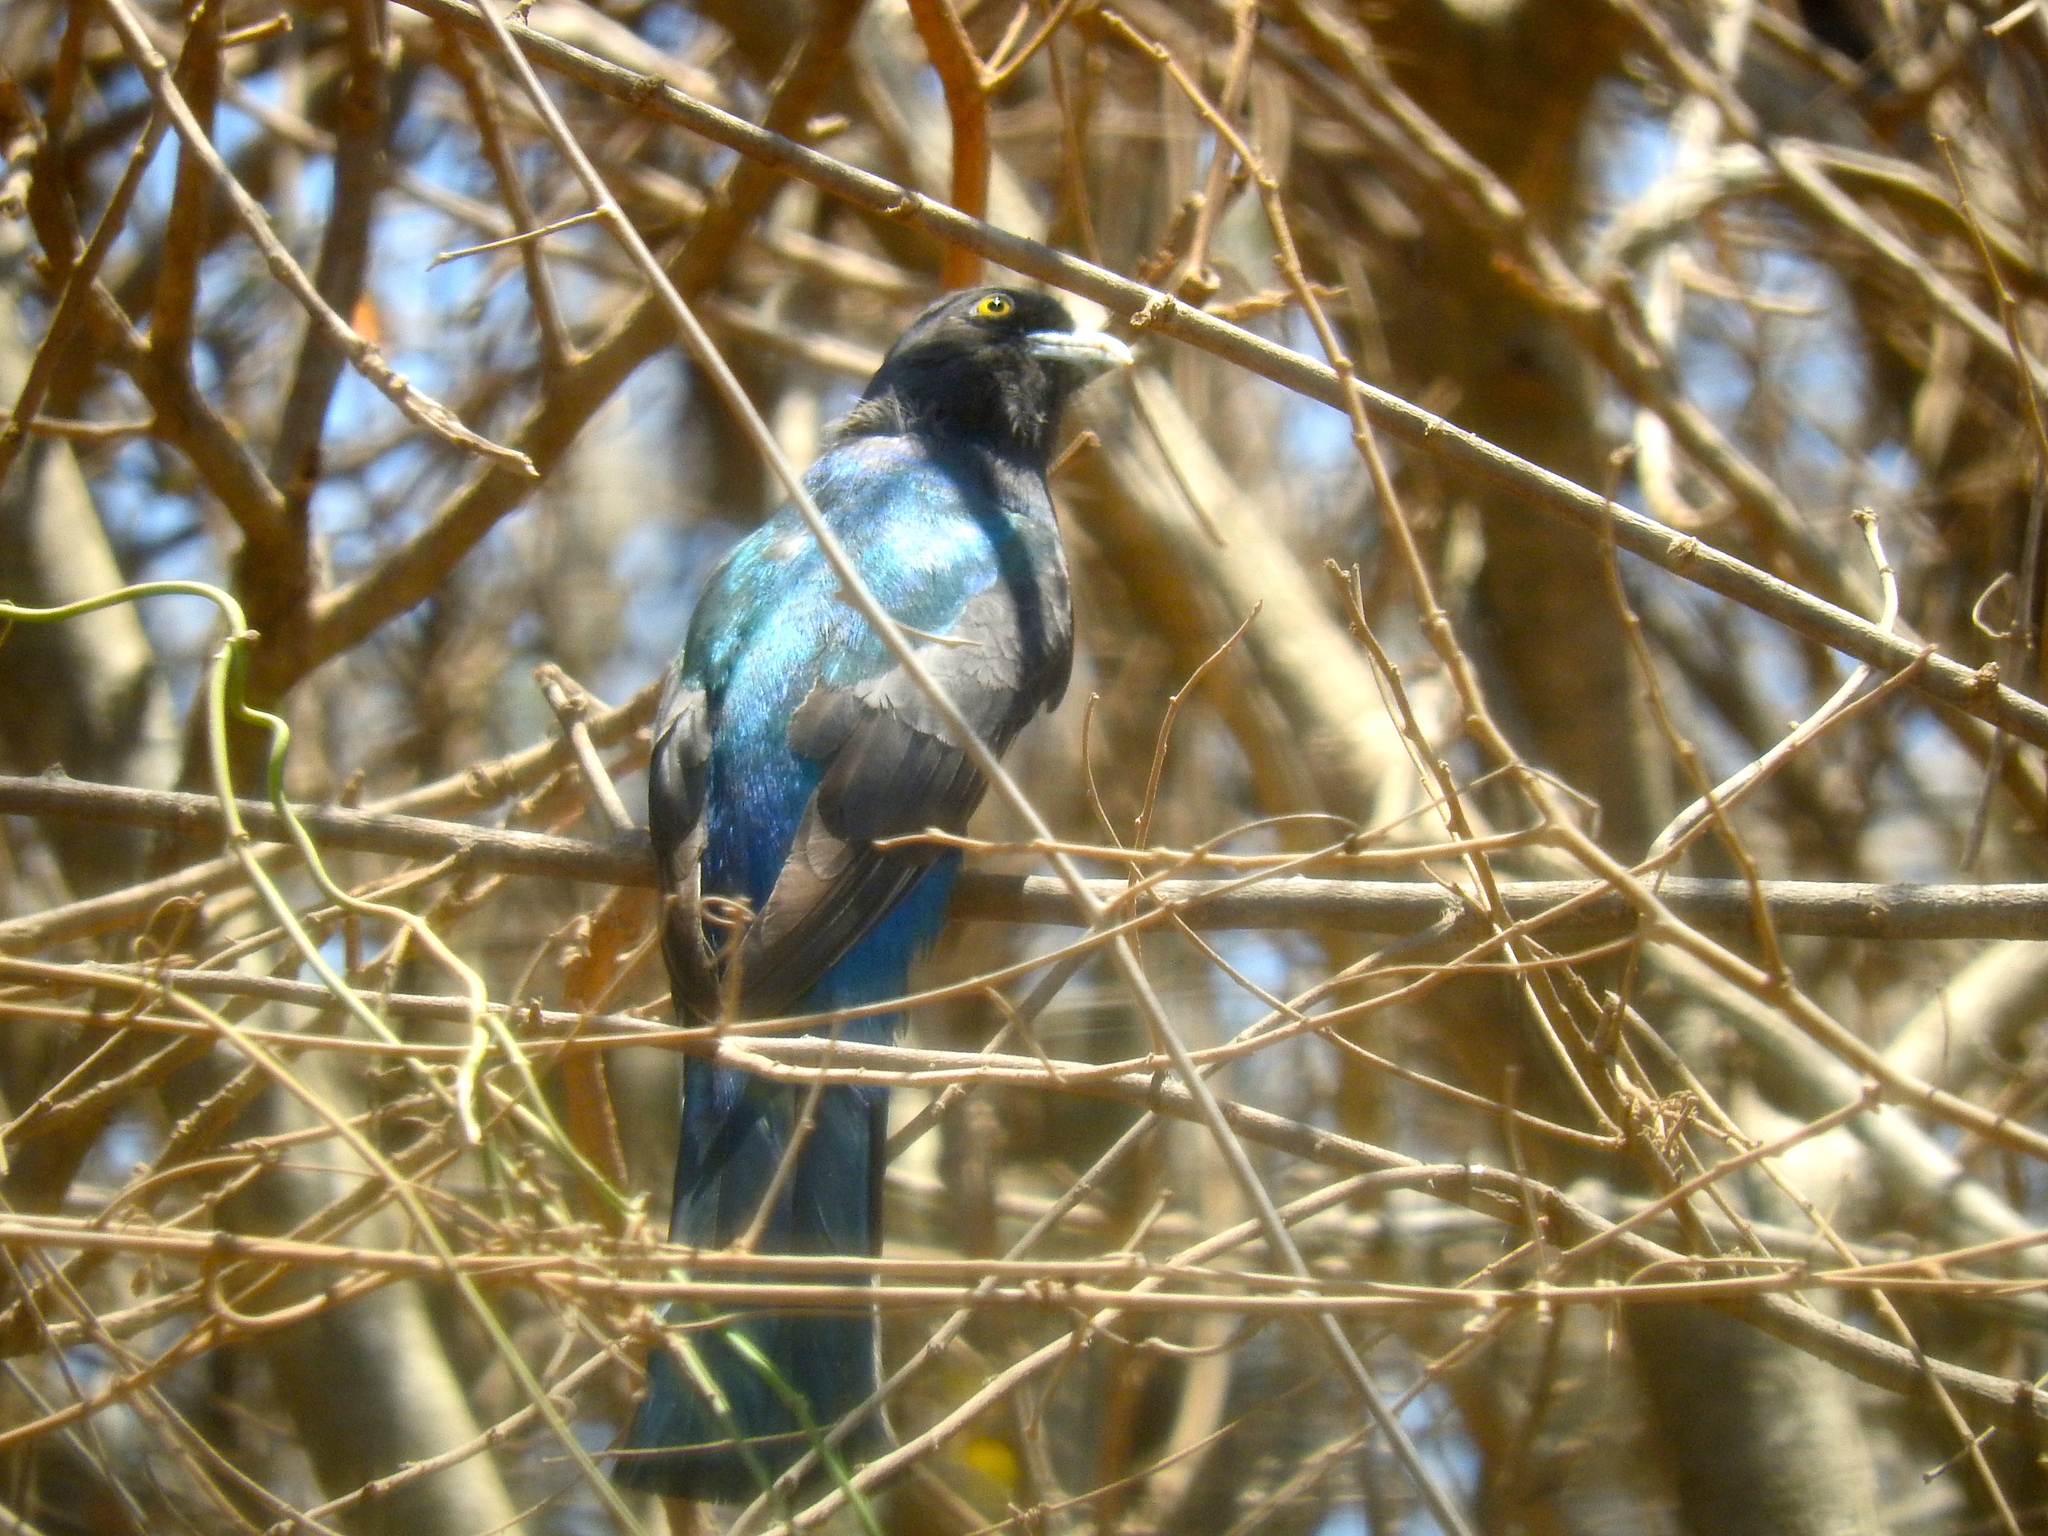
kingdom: Animalia
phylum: Chordata
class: Aves
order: Trogoniformes
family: Trogonidae
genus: Trogon
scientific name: Trogon citreolus
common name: Citreoline trogon
